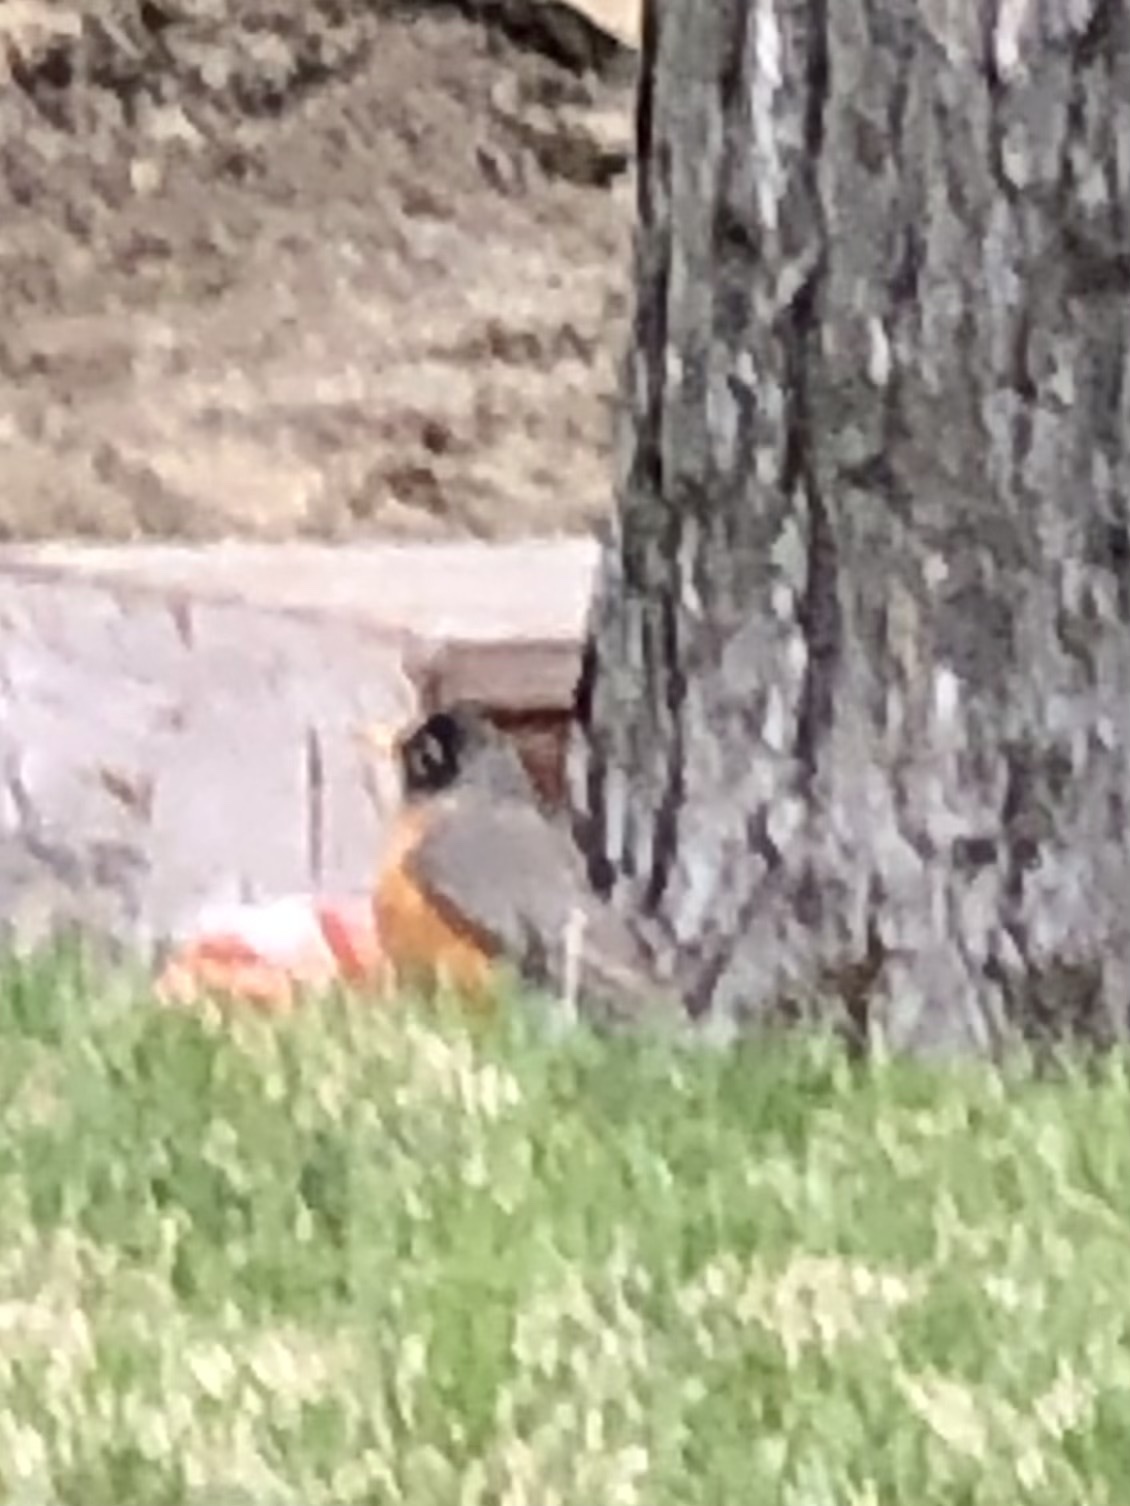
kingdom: Animalia
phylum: Chordata
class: Aves
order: Passeriformes
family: Turdidae
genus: Turdus
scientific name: Turdus migratorius
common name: American robin
